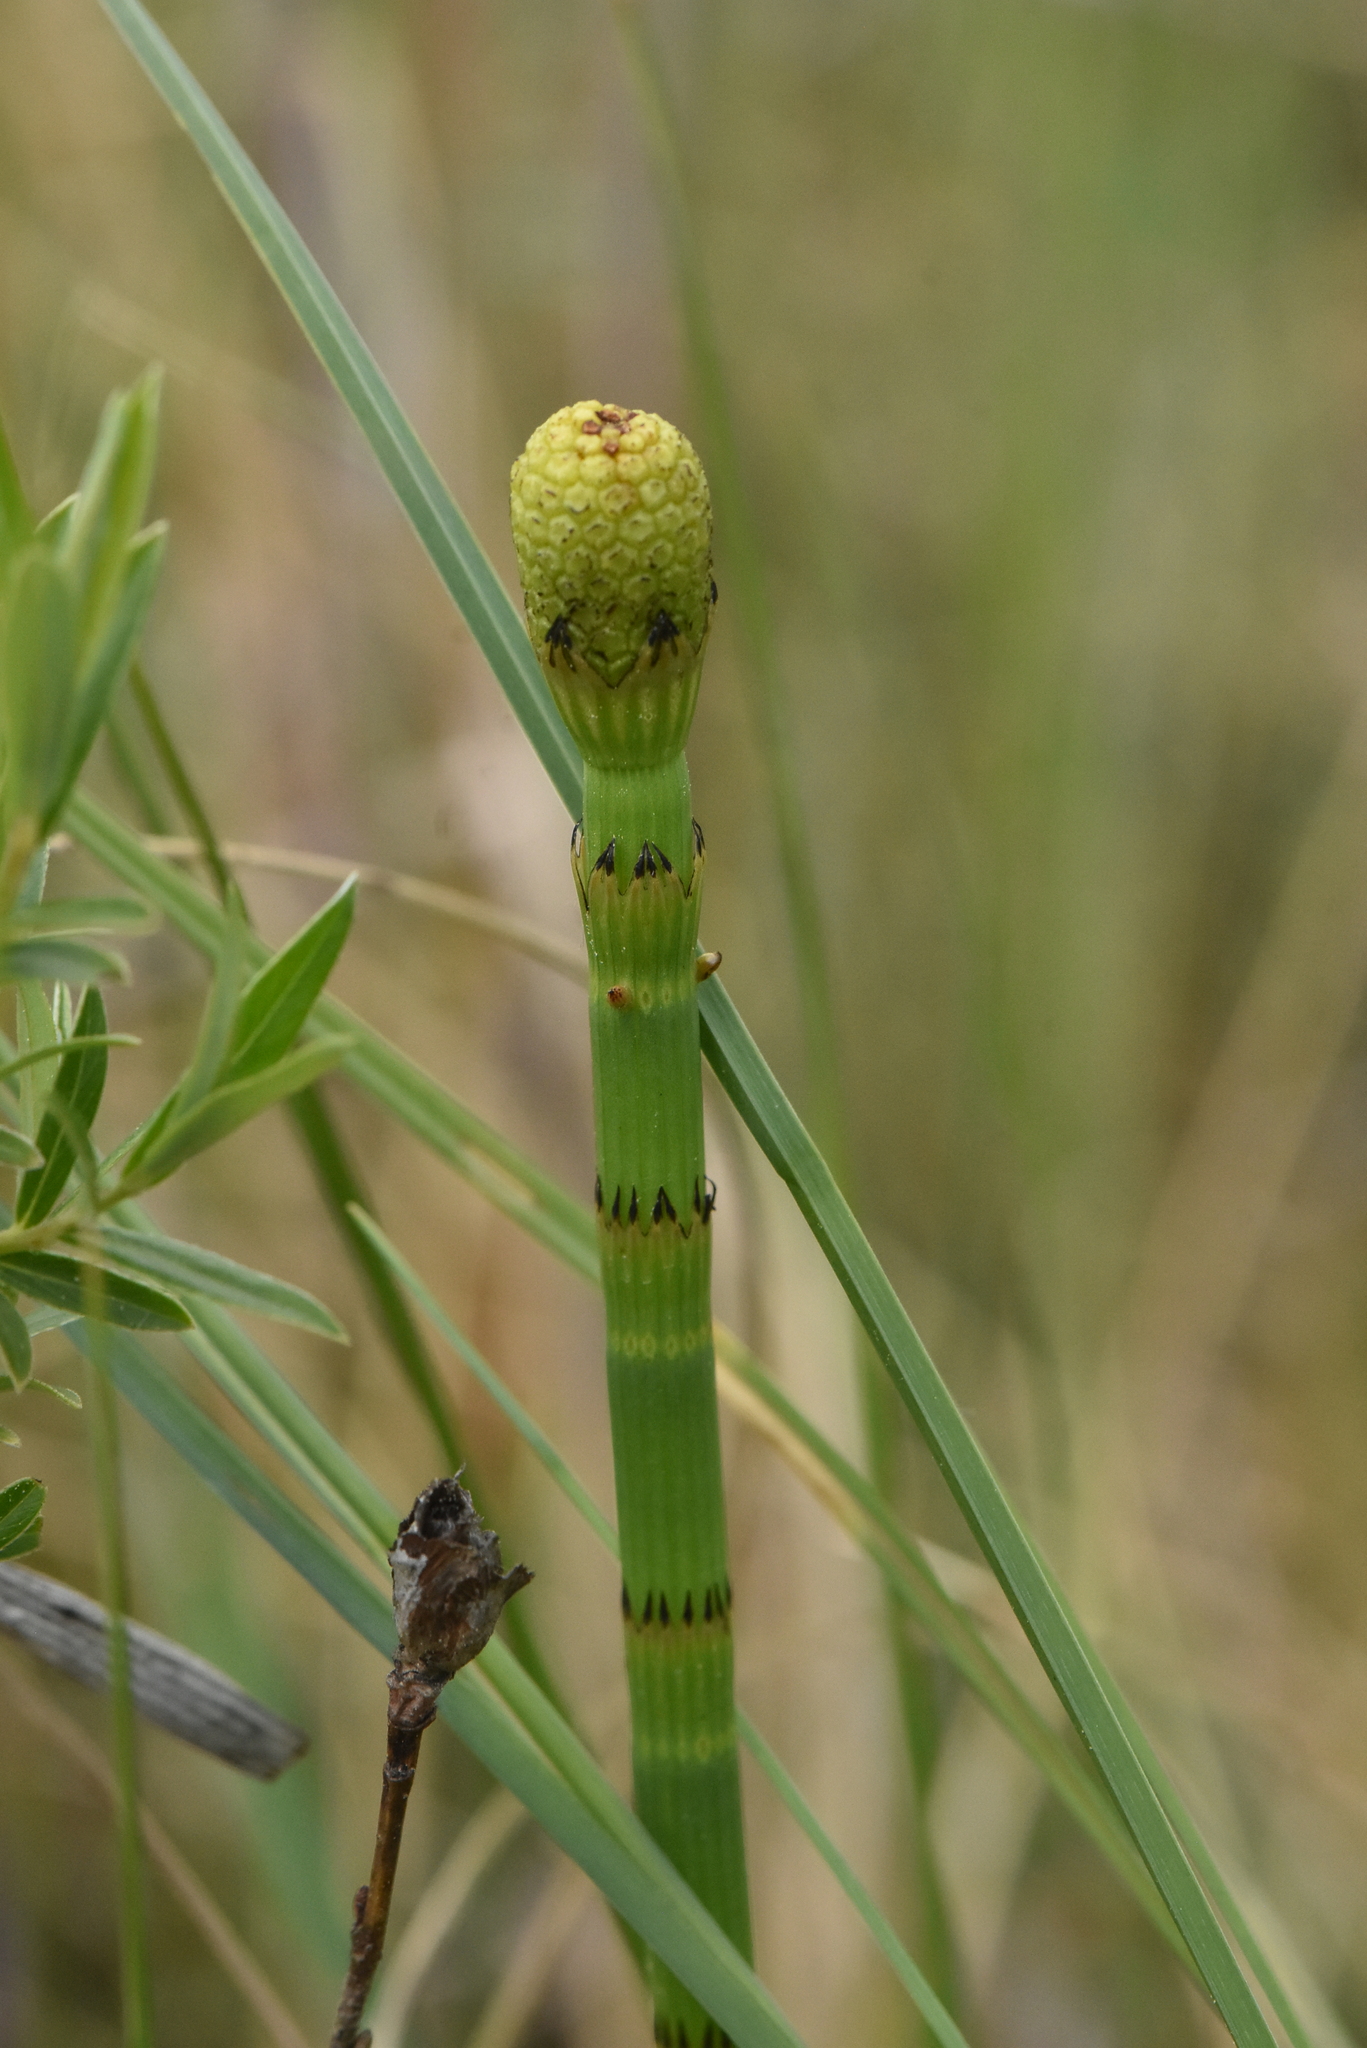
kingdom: Plantae
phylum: Tracheophyta
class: Polypodiopsida
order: Equisetales
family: Equisetaceae
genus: Equisetum
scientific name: Equisetum fluviatile
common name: Water horsetail
